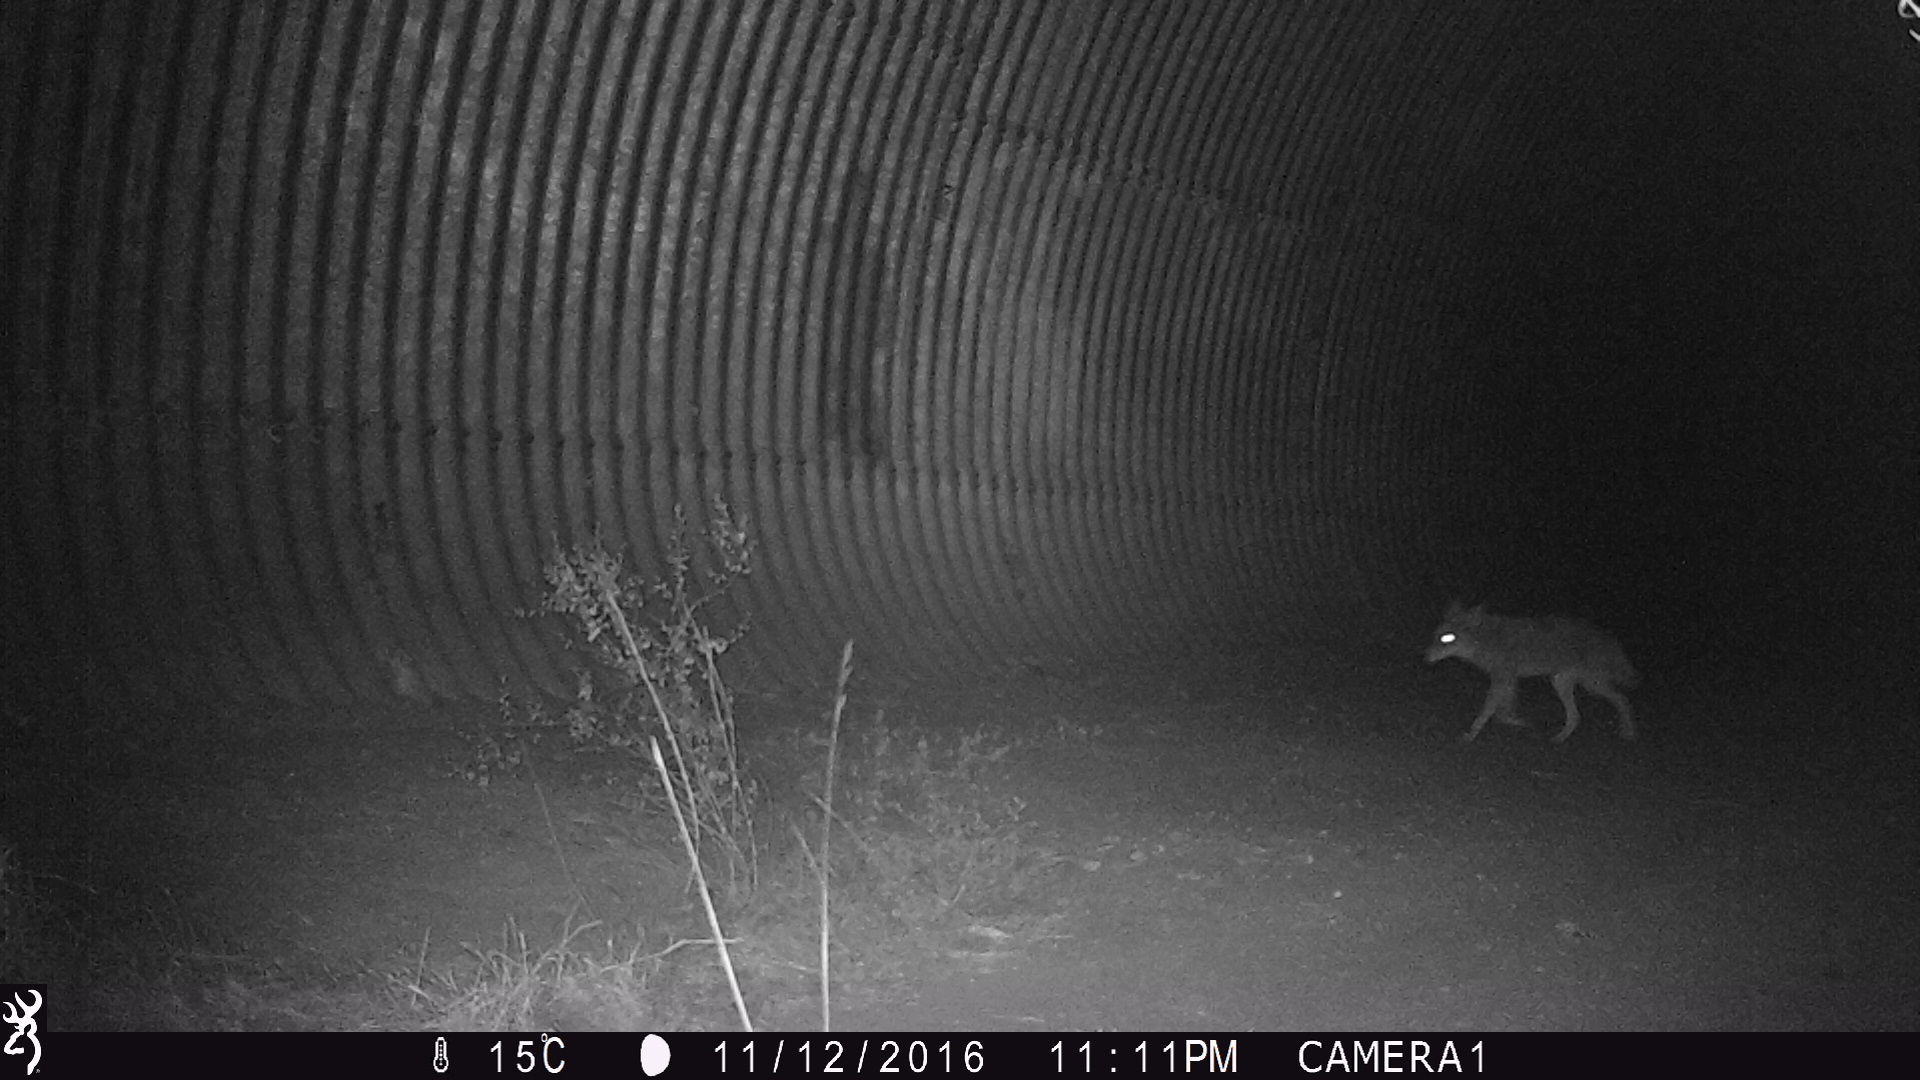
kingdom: Animalia
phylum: Chordata
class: Mammalia
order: Carnivora
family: Canidae
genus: Canis
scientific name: Canis latrans
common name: Coyote
